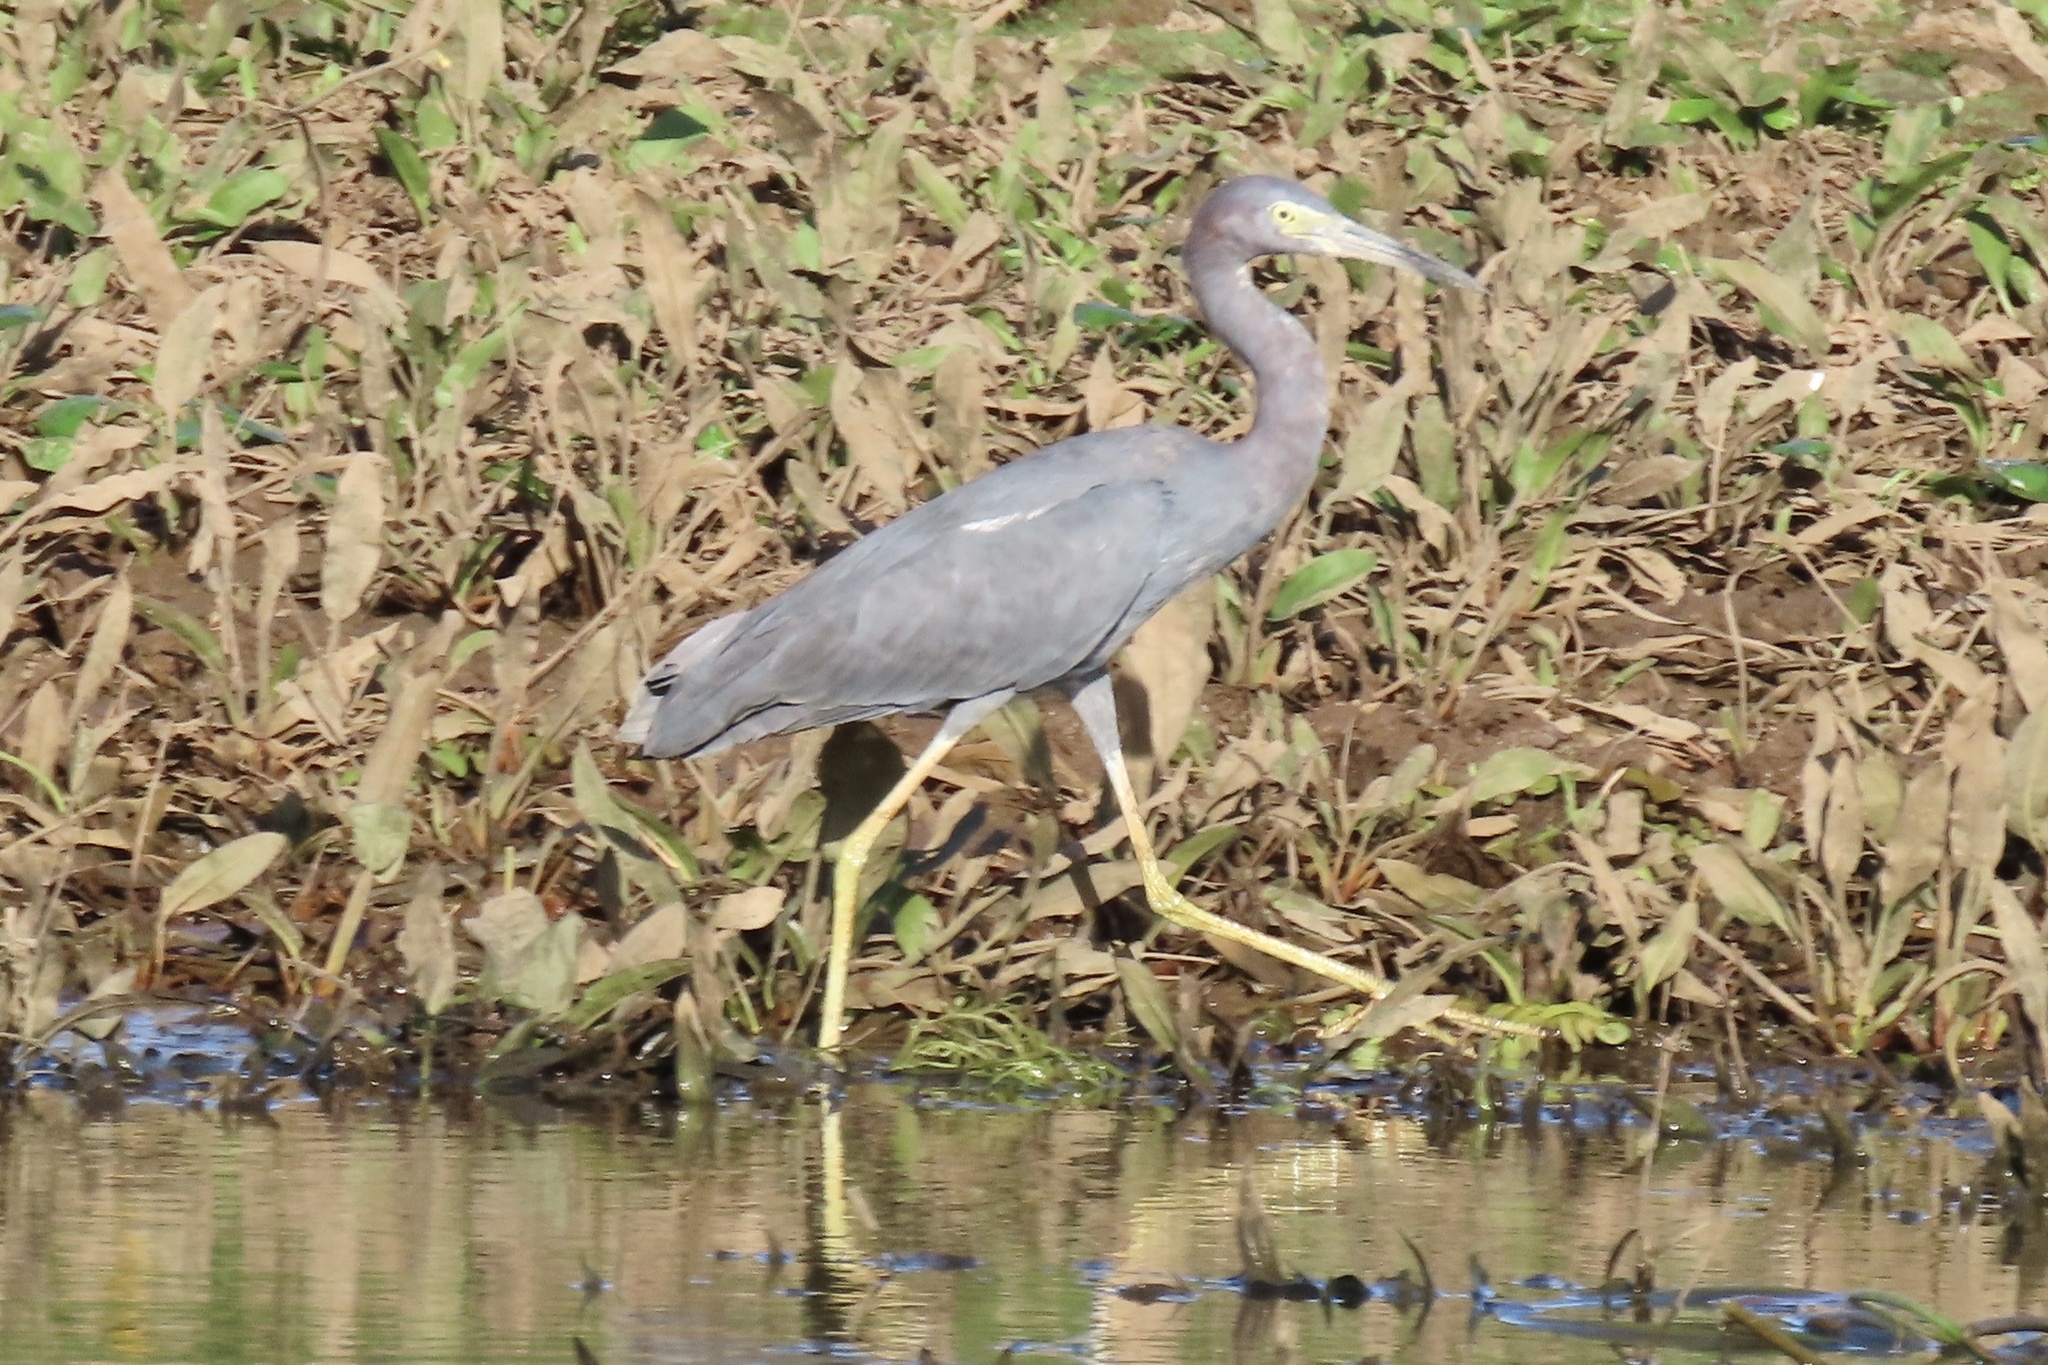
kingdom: Animalia
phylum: Chordata
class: Aves
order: Pelecaniformes
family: Ardeidae
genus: Egretta
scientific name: Egretta caerulea
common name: Little blue heron
